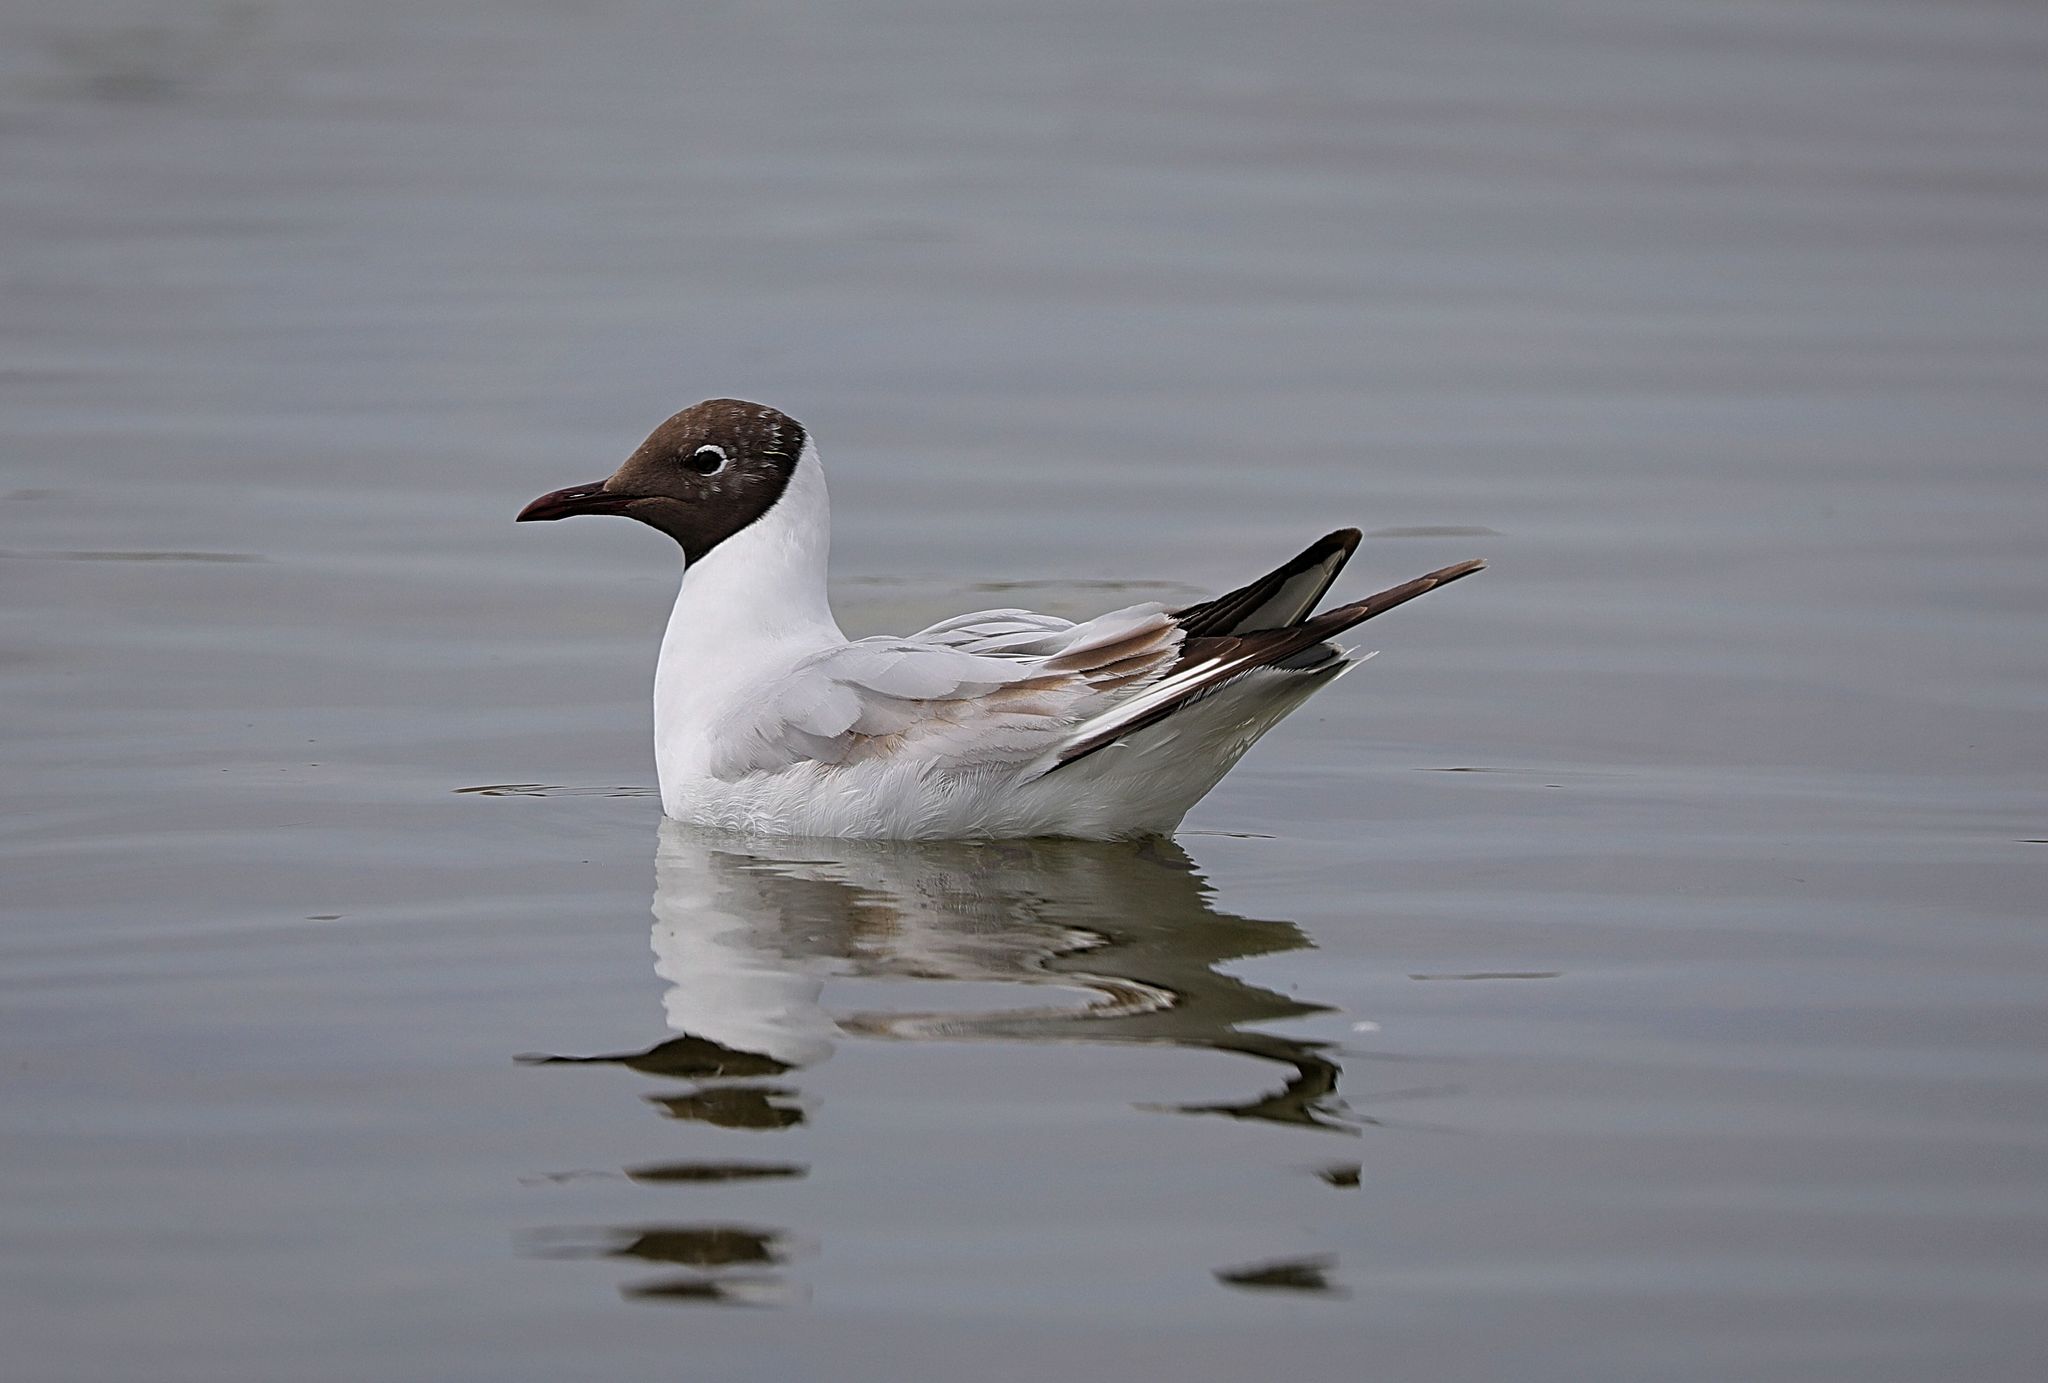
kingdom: Animalia
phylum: Chordata
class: Aves
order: Charadriiformes
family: Laridae
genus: Chroicocephalus
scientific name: Chroicocephalus ridibundus
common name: Black-headed gull
